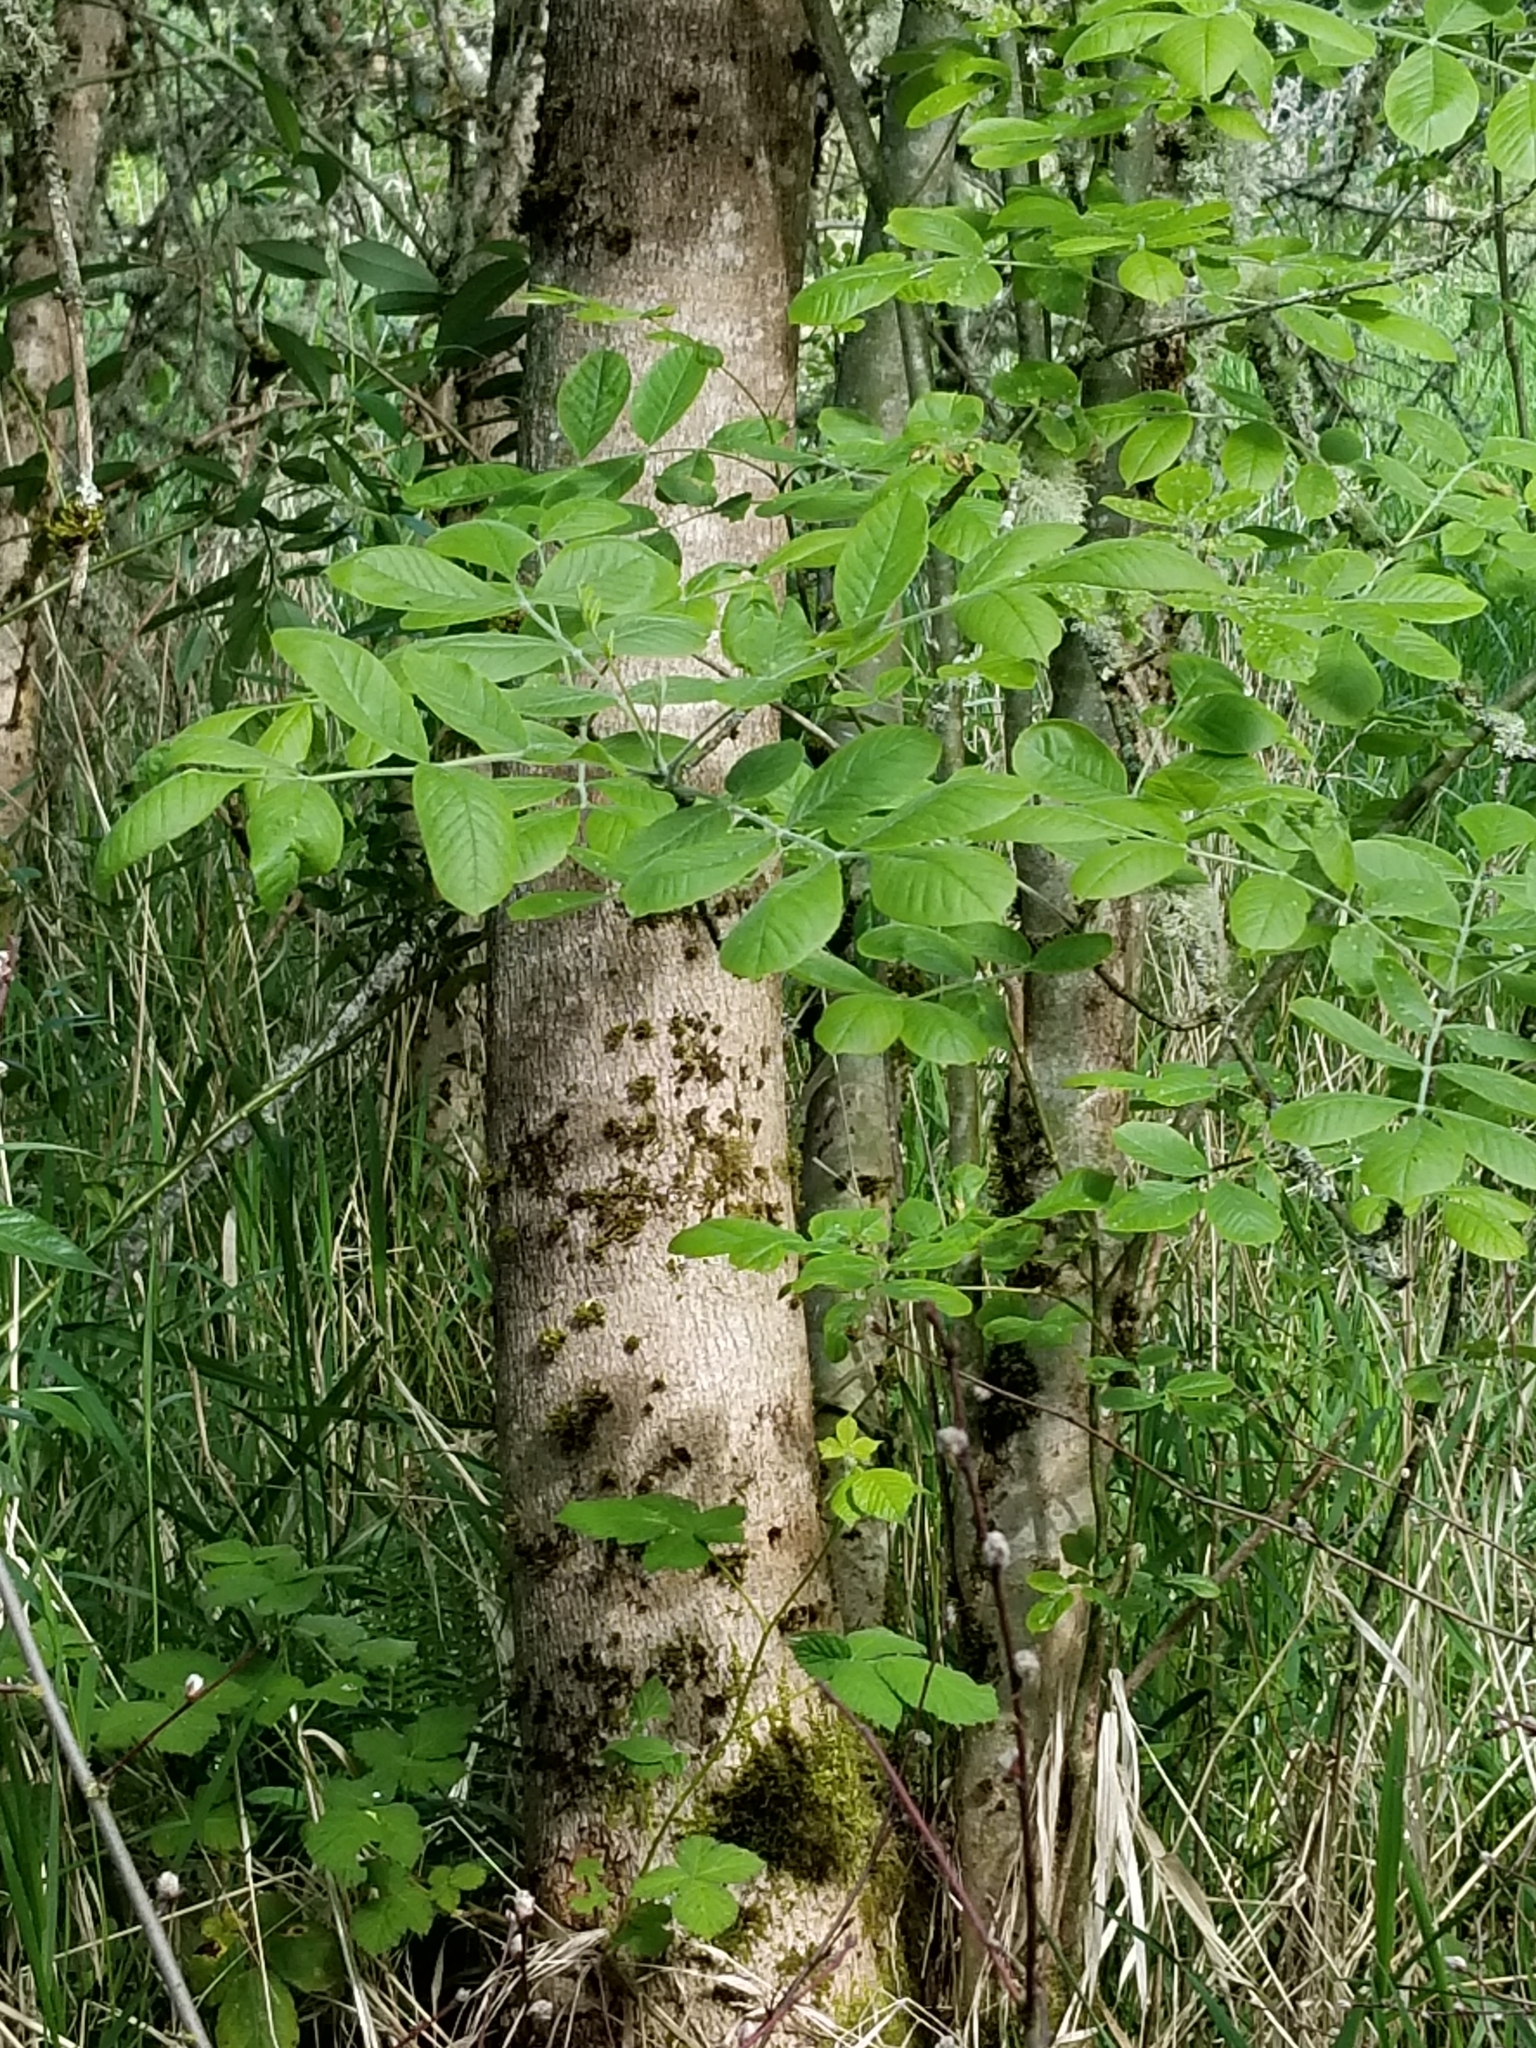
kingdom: Plantae
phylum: Tracheophyta
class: Magnoliopsida
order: Lamiales
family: Oleaceae
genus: Fraxinus
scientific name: Fraxinus latifolia
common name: Oregon ash
